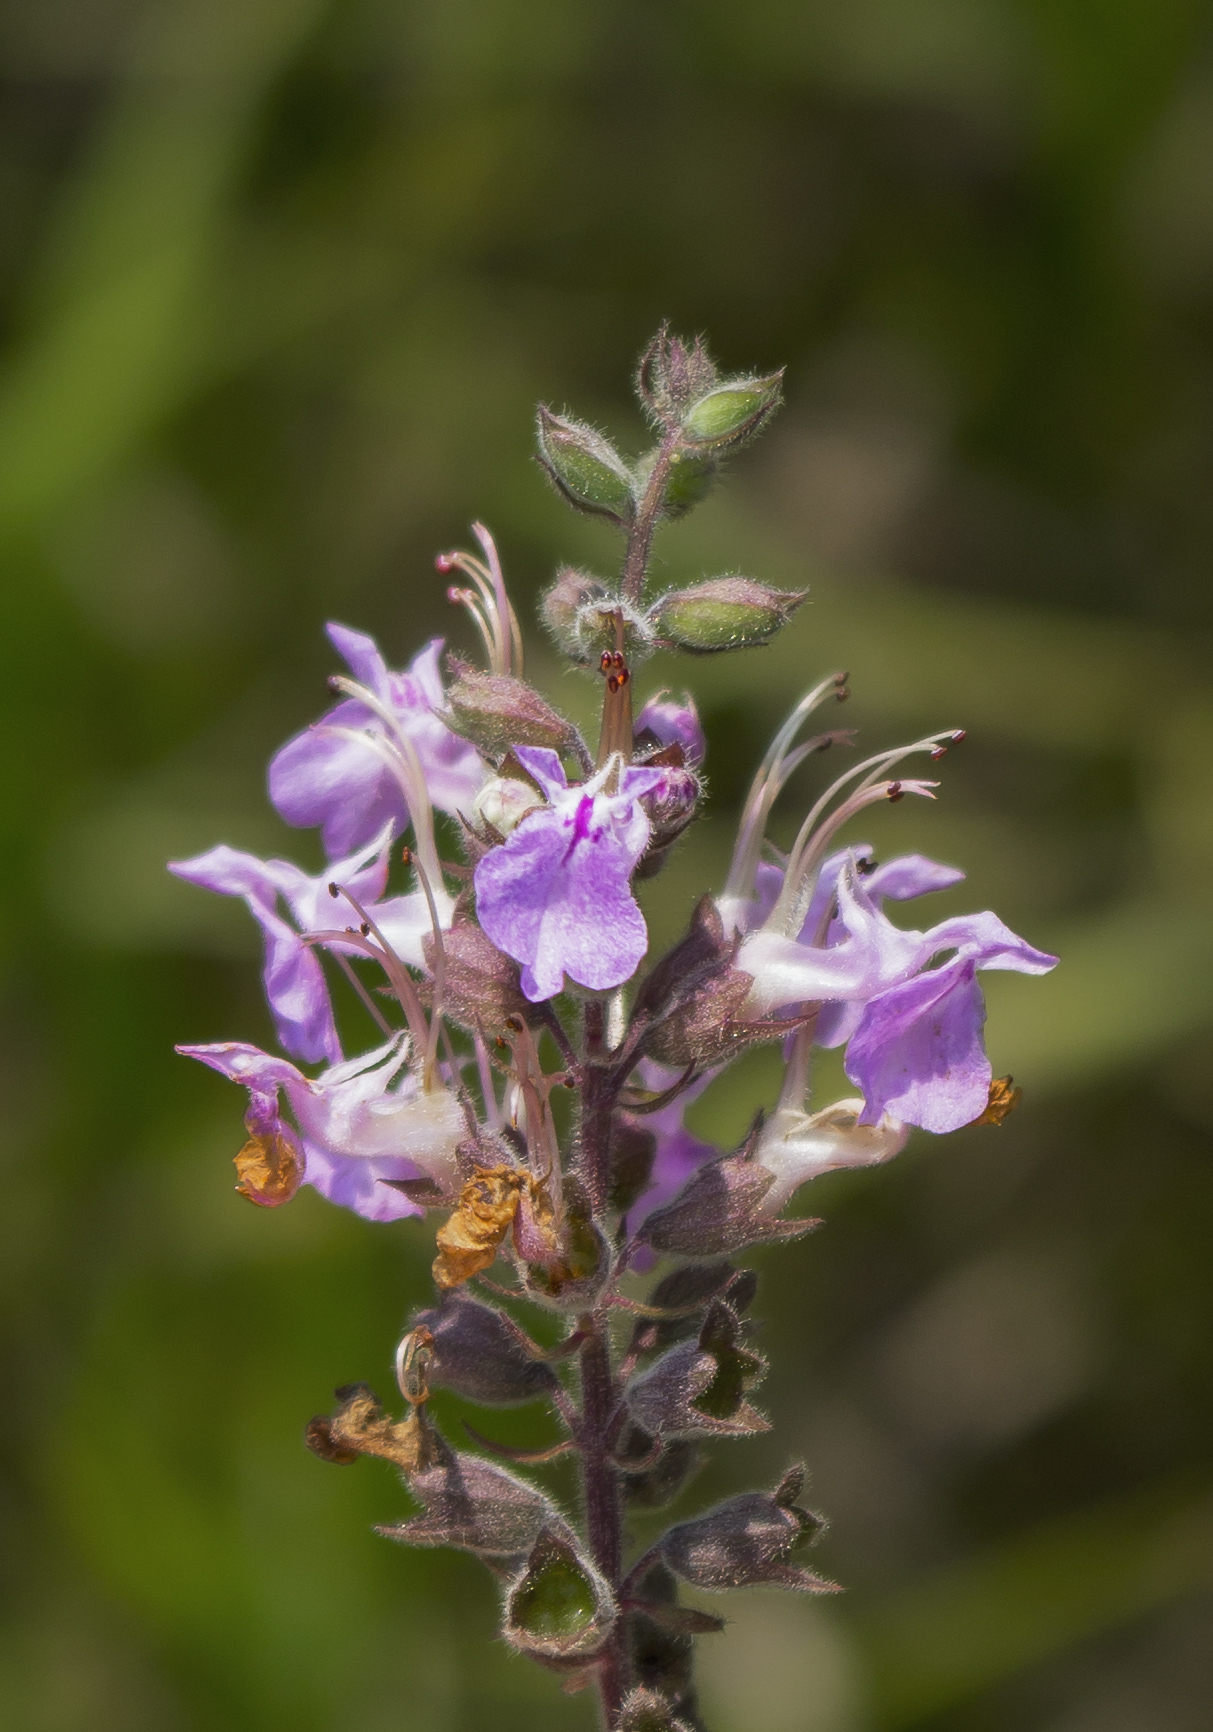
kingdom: Plantae
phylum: Tracheophyta
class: Magnoliopsida
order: Lamiales
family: Lamiaceae
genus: Teucrium
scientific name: Teucrium canadense
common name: American germander
